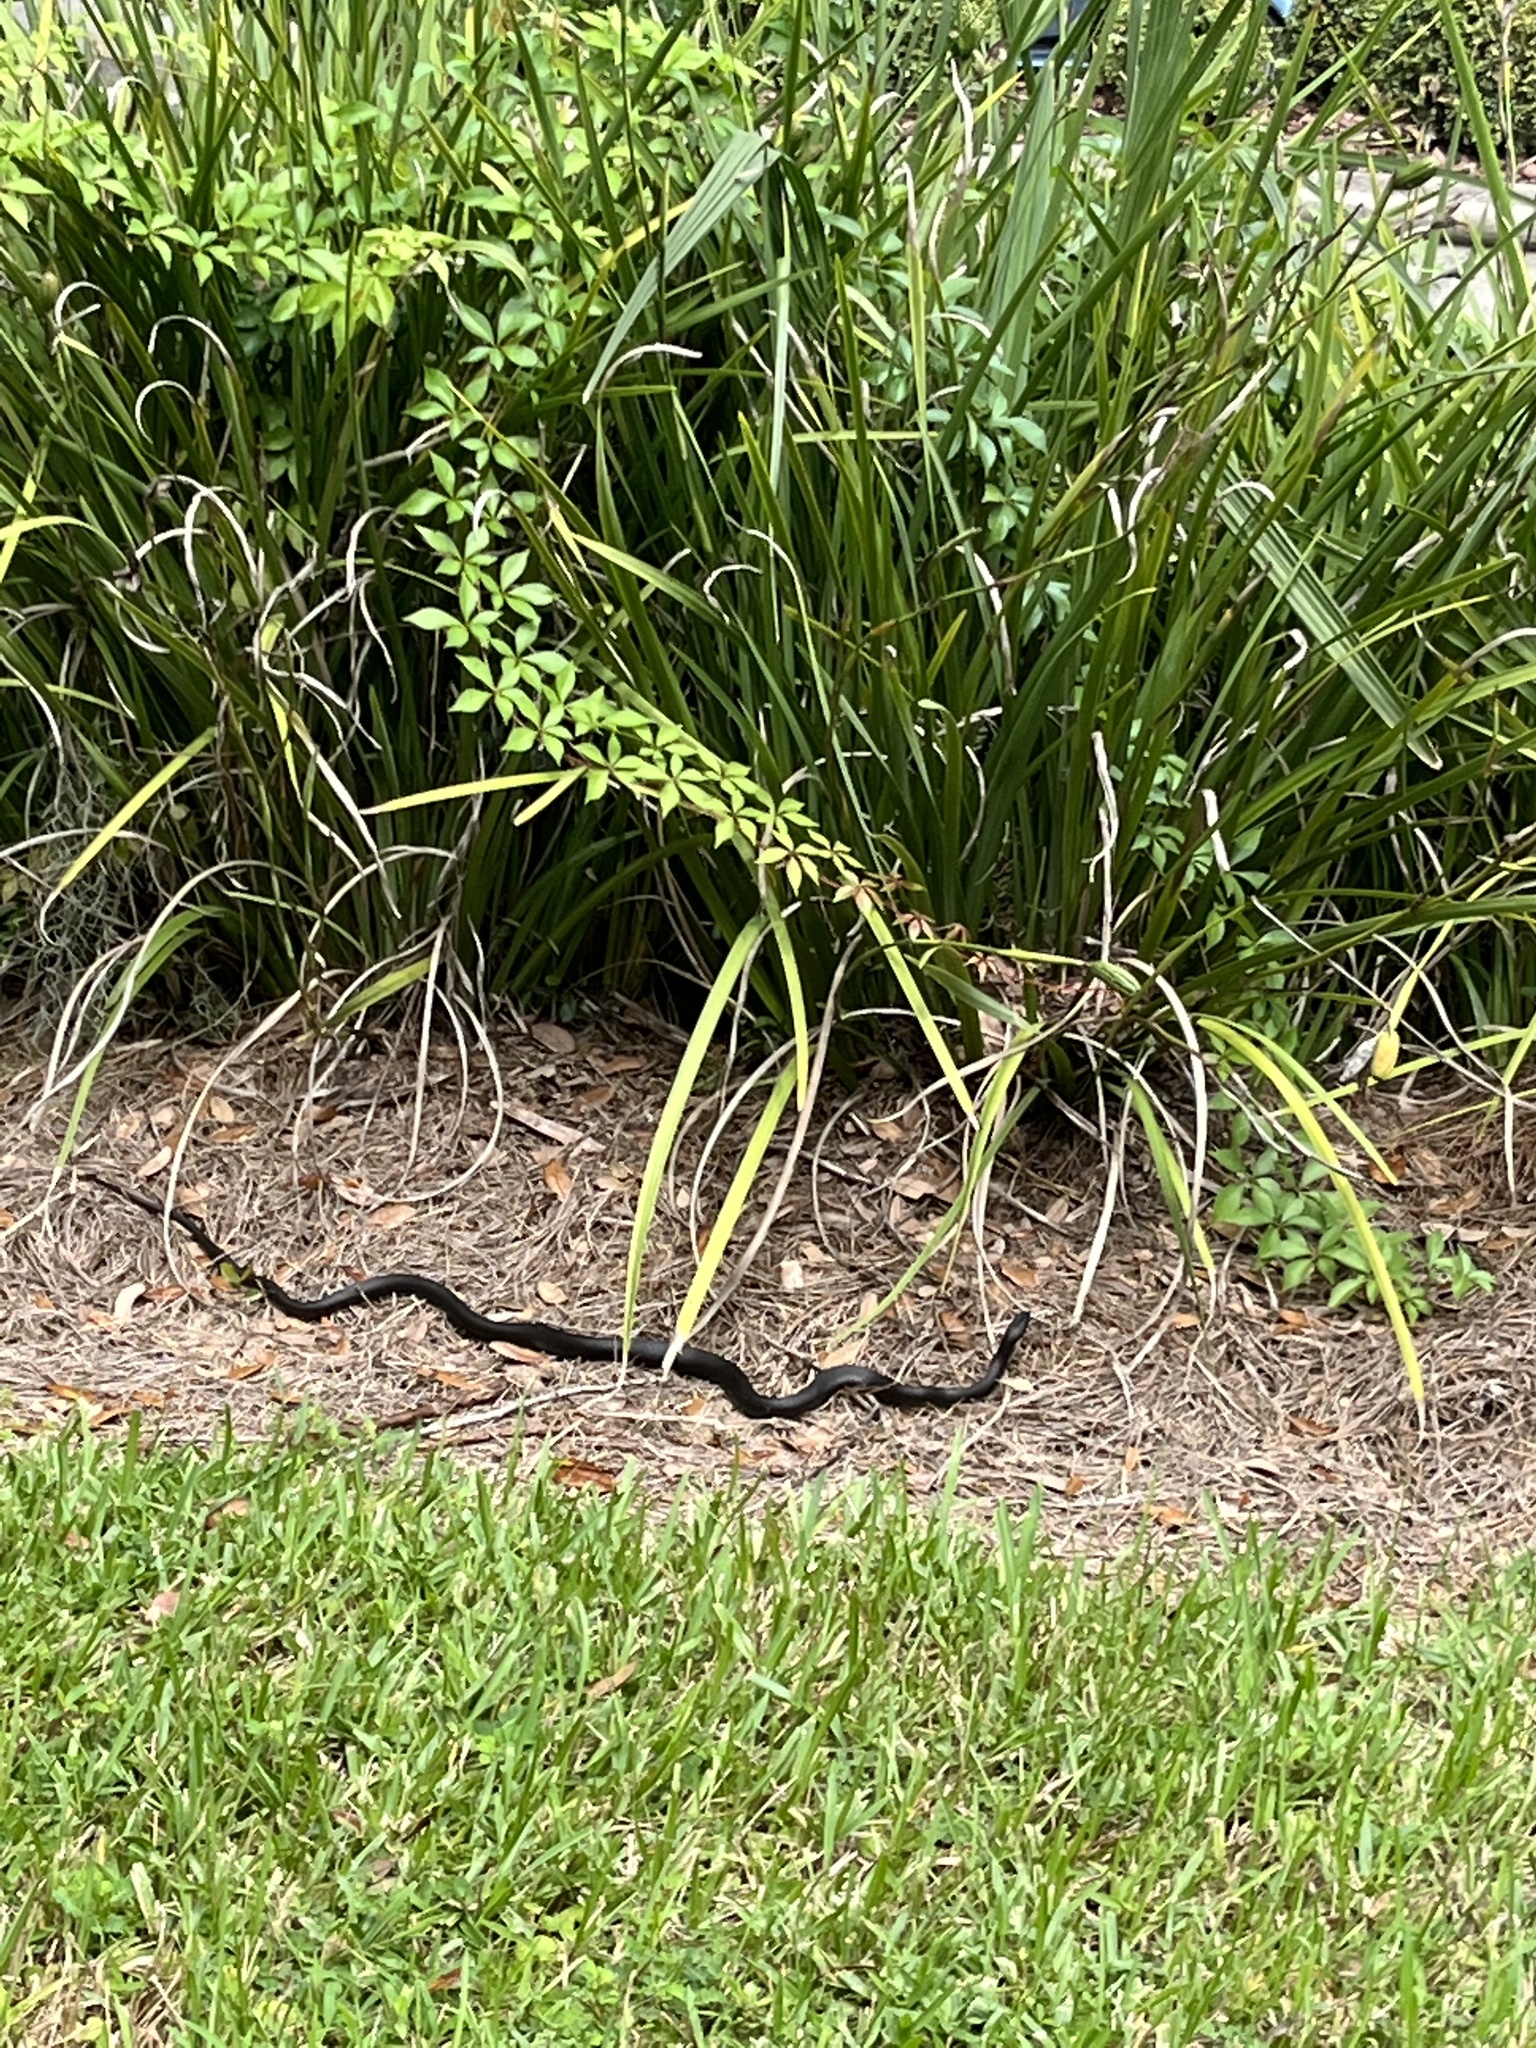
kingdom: Animalia
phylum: Chordata
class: Squamata
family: Colubridae
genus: Coluber
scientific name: Coluber constrictor
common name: Eastern racer
